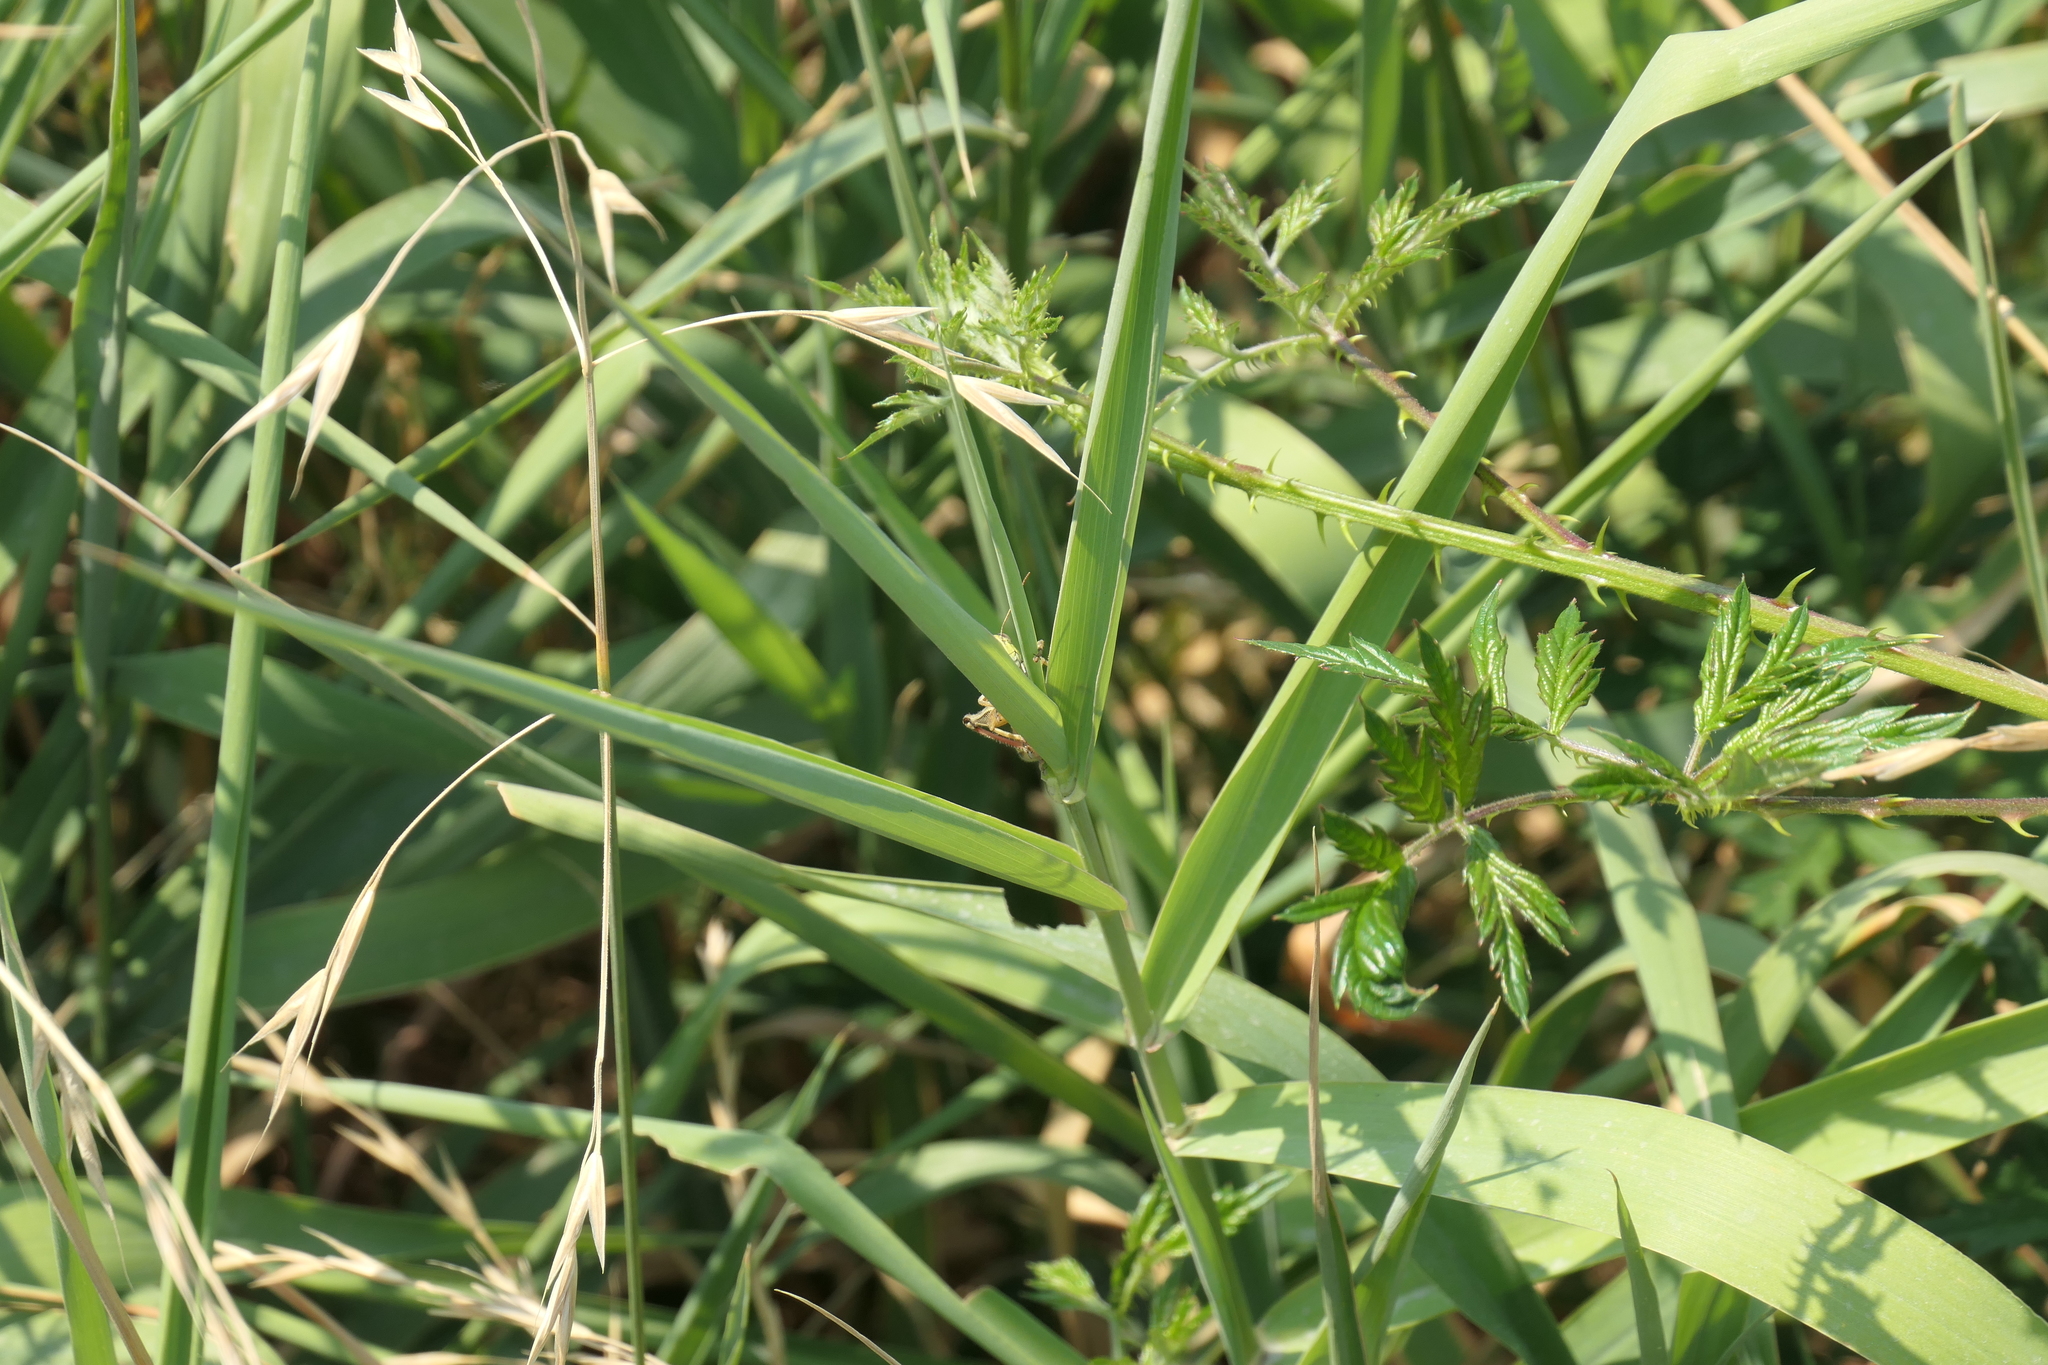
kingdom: Animalia
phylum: Arthropoda
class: Insecta
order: Orthoptera
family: Acrididae
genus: Melanoplus
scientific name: Melanoplus femurrubrum
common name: Red-legged grasshopper
